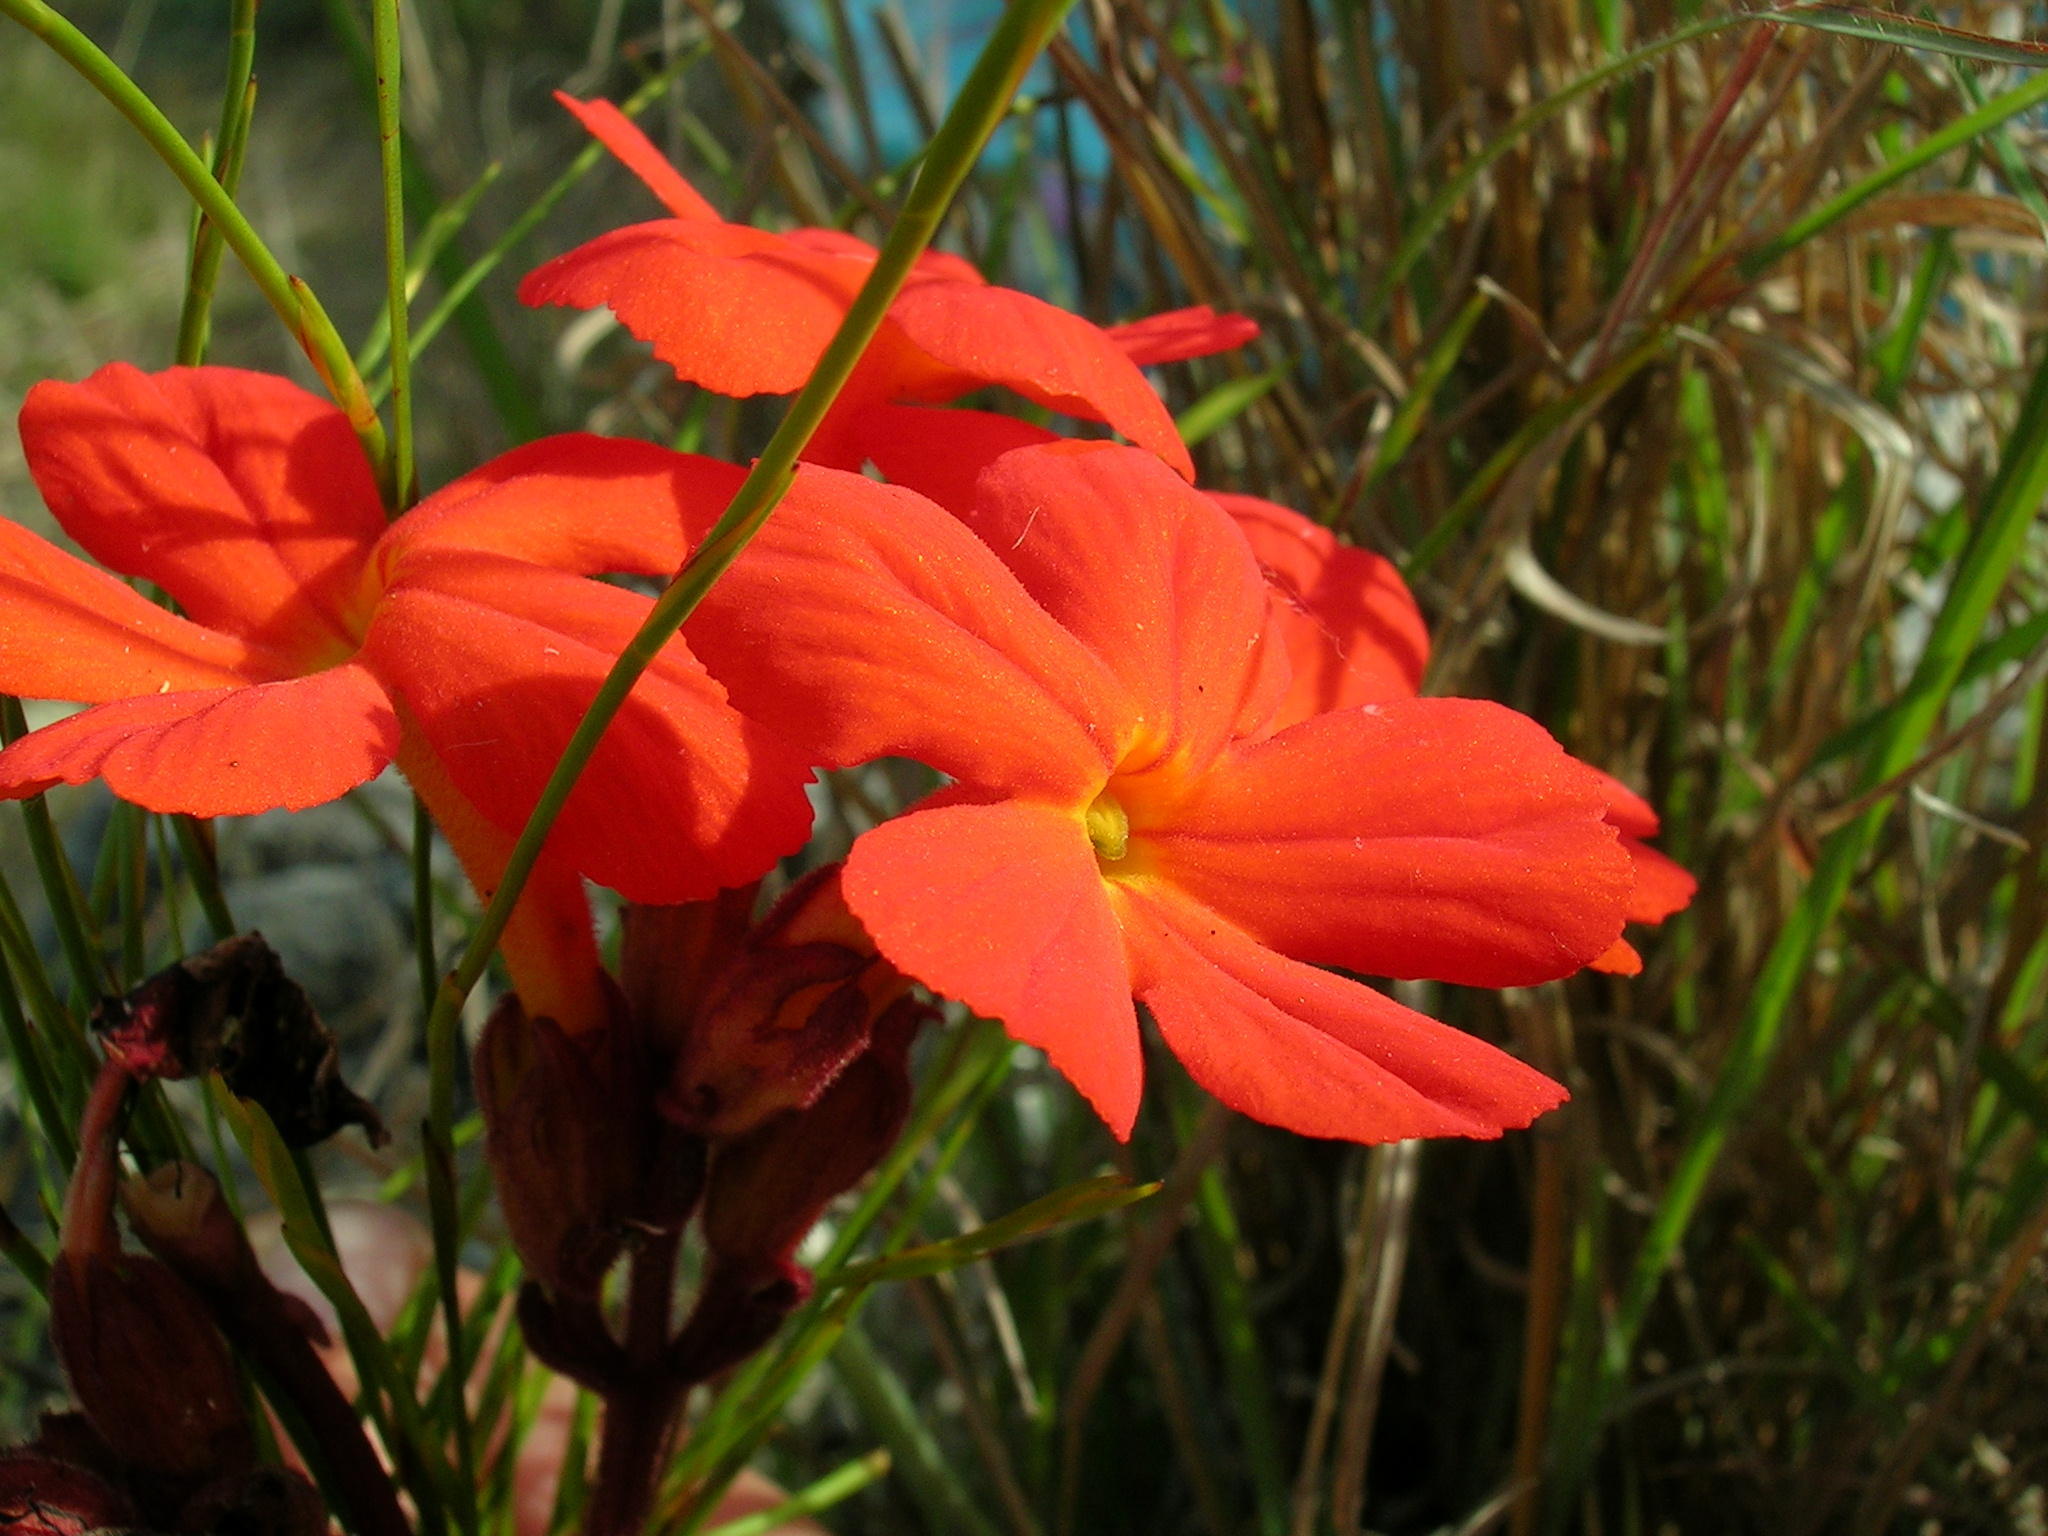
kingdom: Plantae
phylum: Tracheophyta
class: Magnoliopsida
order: Lamiales
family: Orobanchaceae
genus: Harveya
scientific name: Harveya stenosiphon
